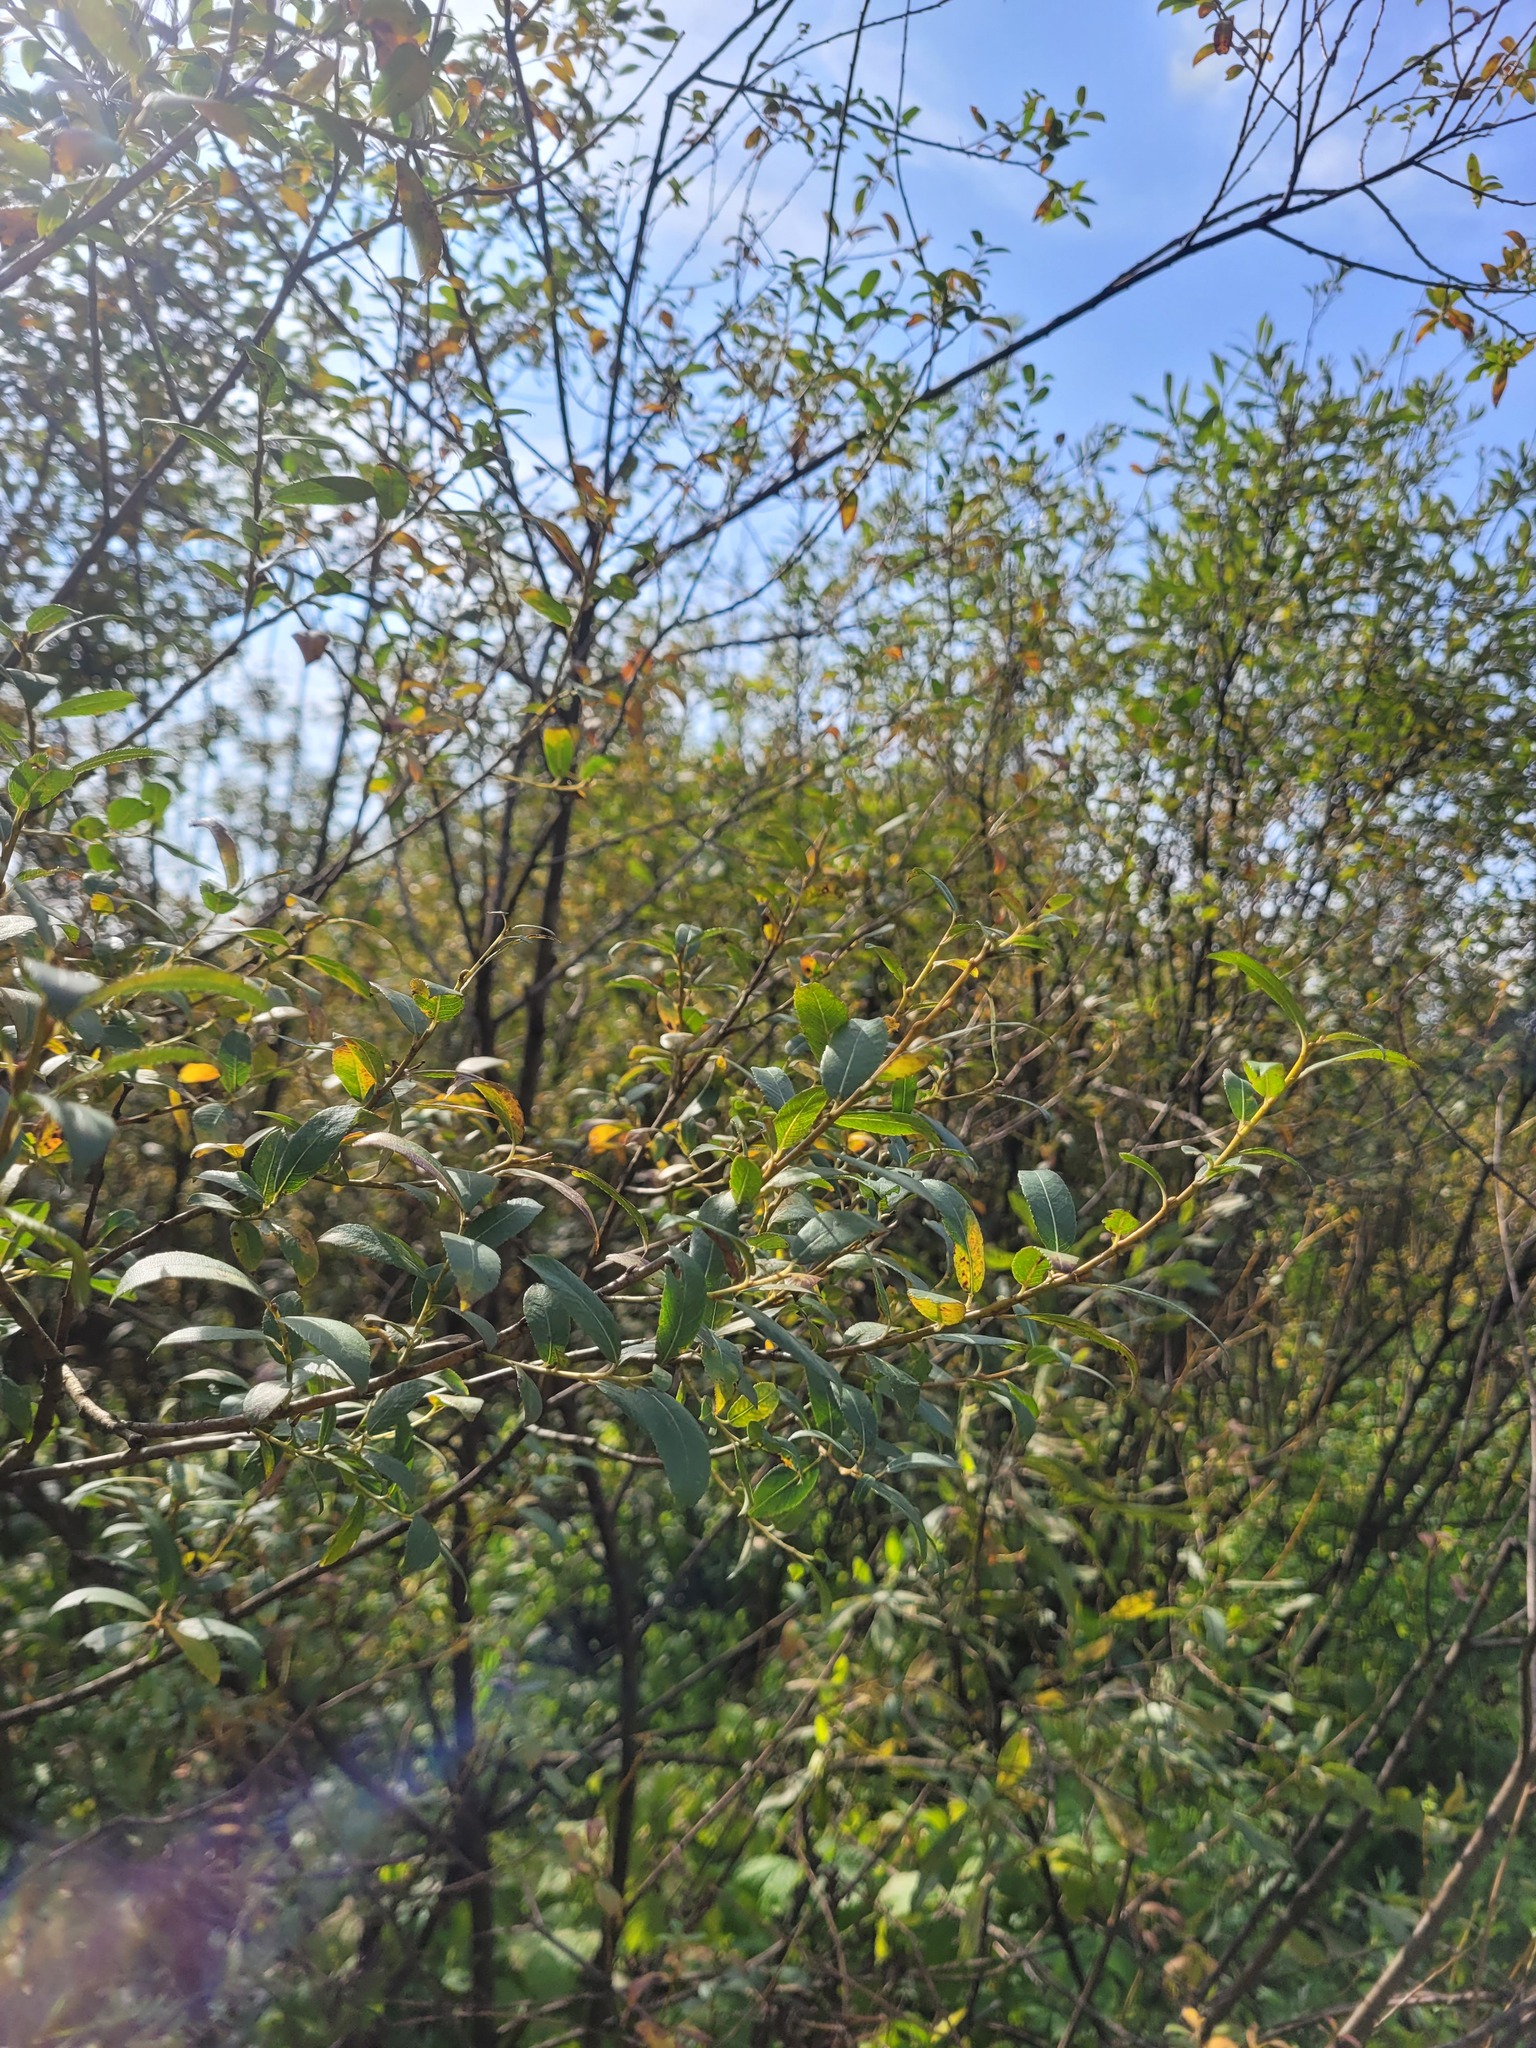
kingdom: Plantae
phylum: Tracheophyta
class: Magnoliopsida
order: Malpighiales
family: Salicaceae
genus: Salix
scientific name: Salix triandra
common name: Almond willow
